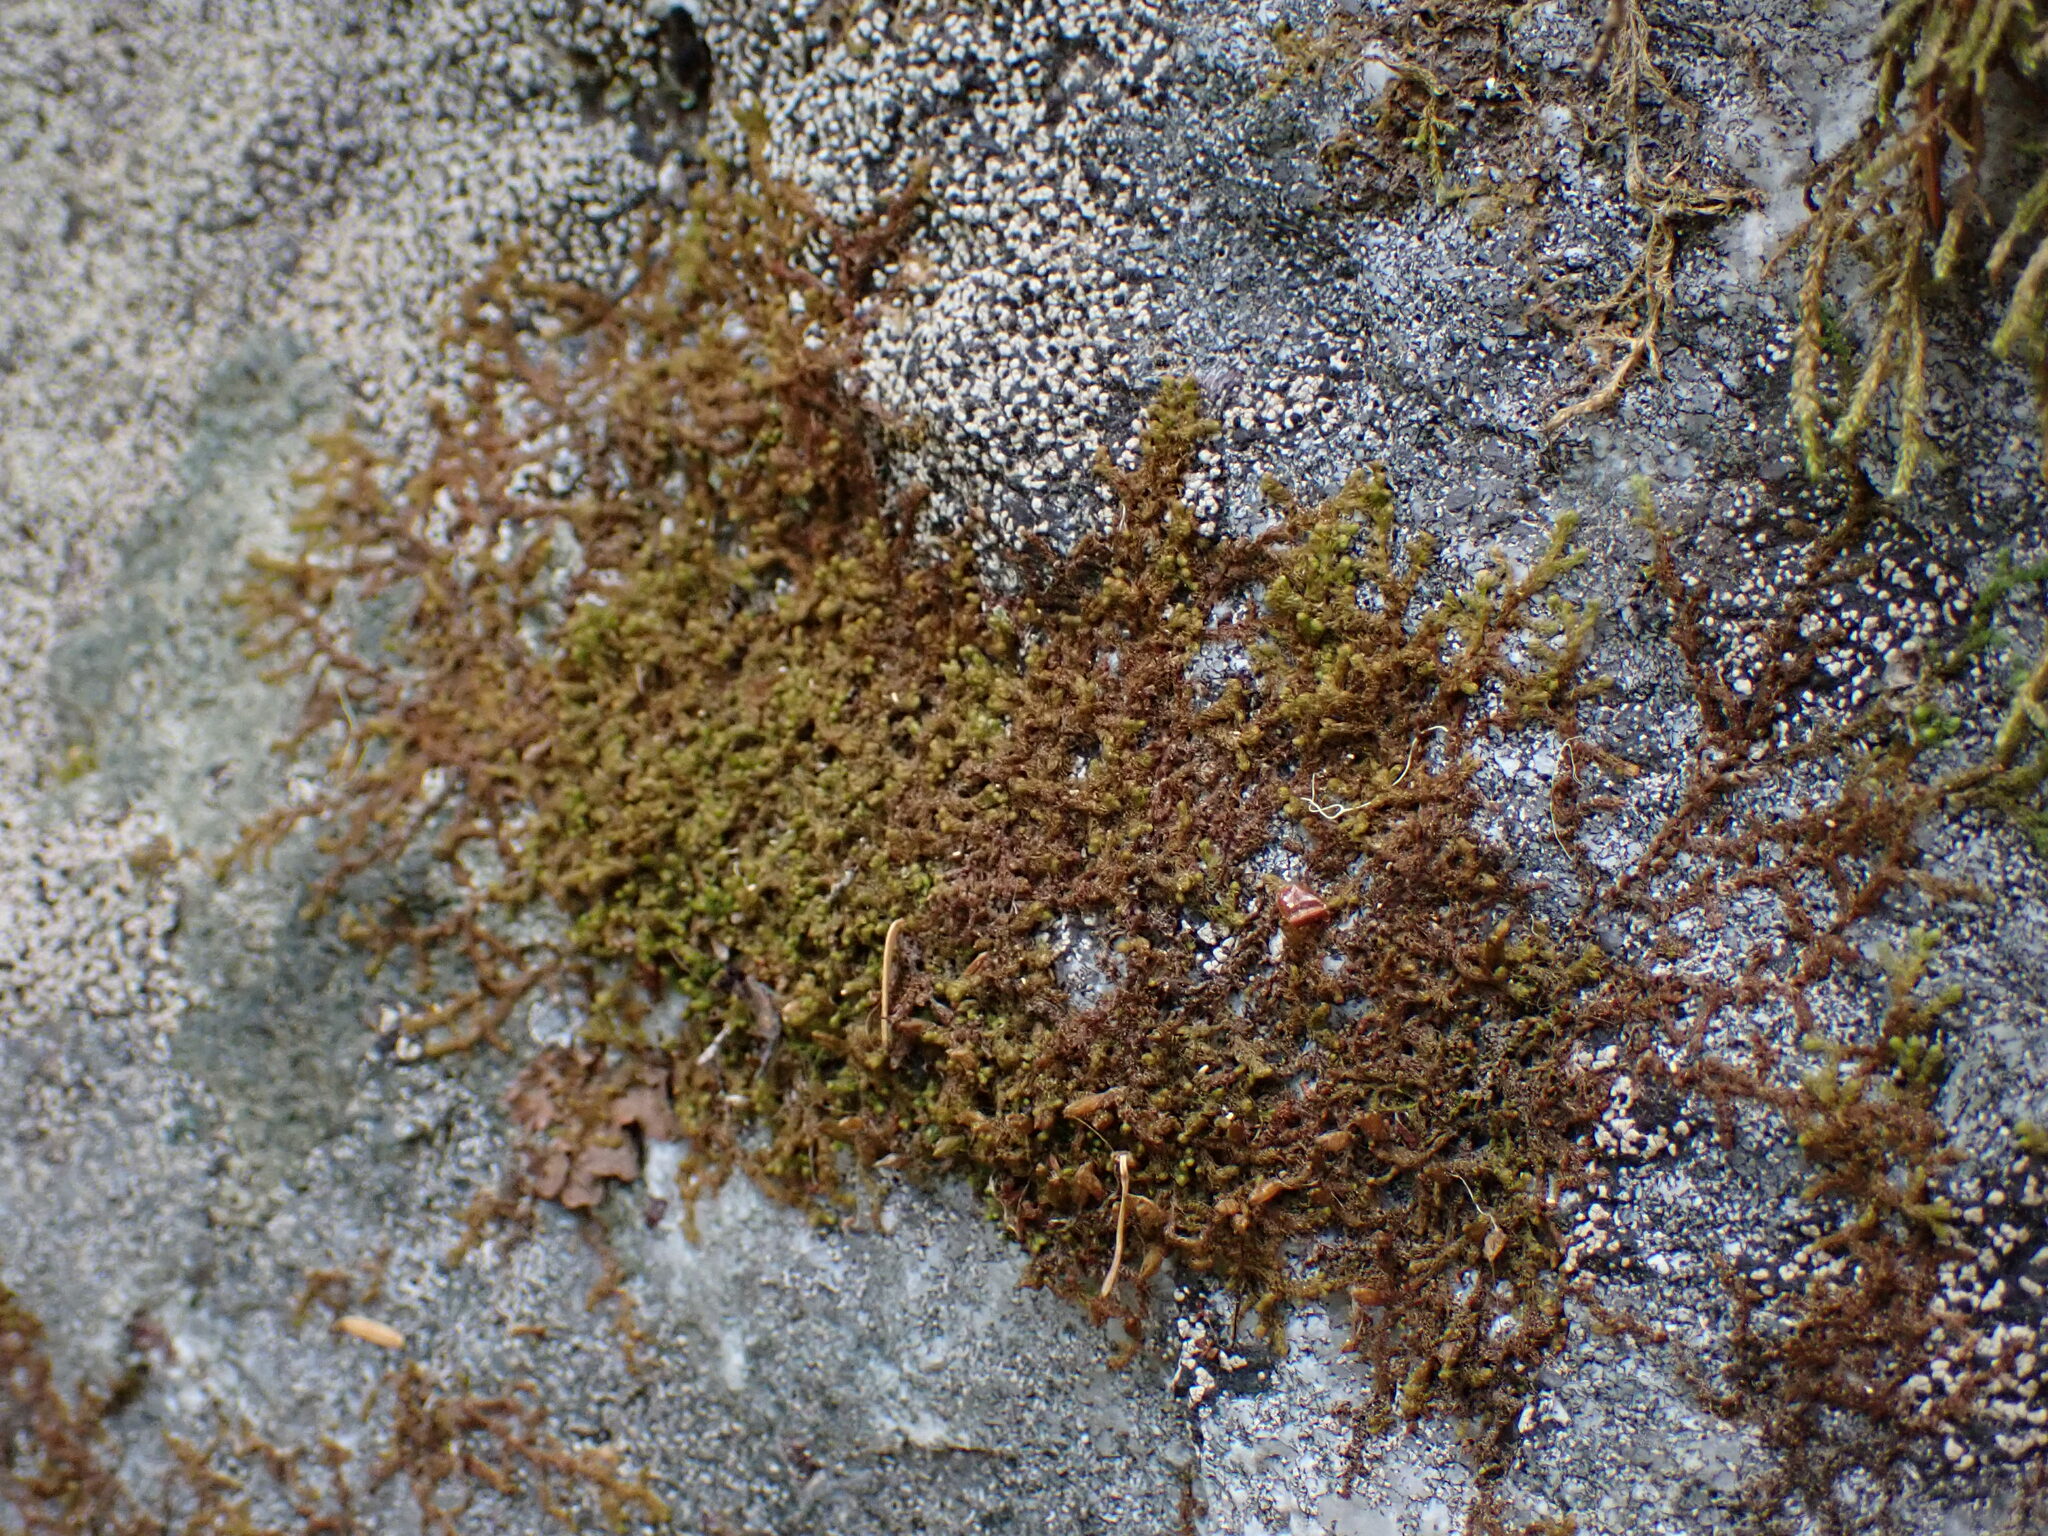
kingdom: Plantae
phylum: Marchantiophyta
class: Jungermanniopsida
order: Ptilidiales
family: Ptilidiaceae
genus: Ptilidium
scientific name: Ptilidium californicum
